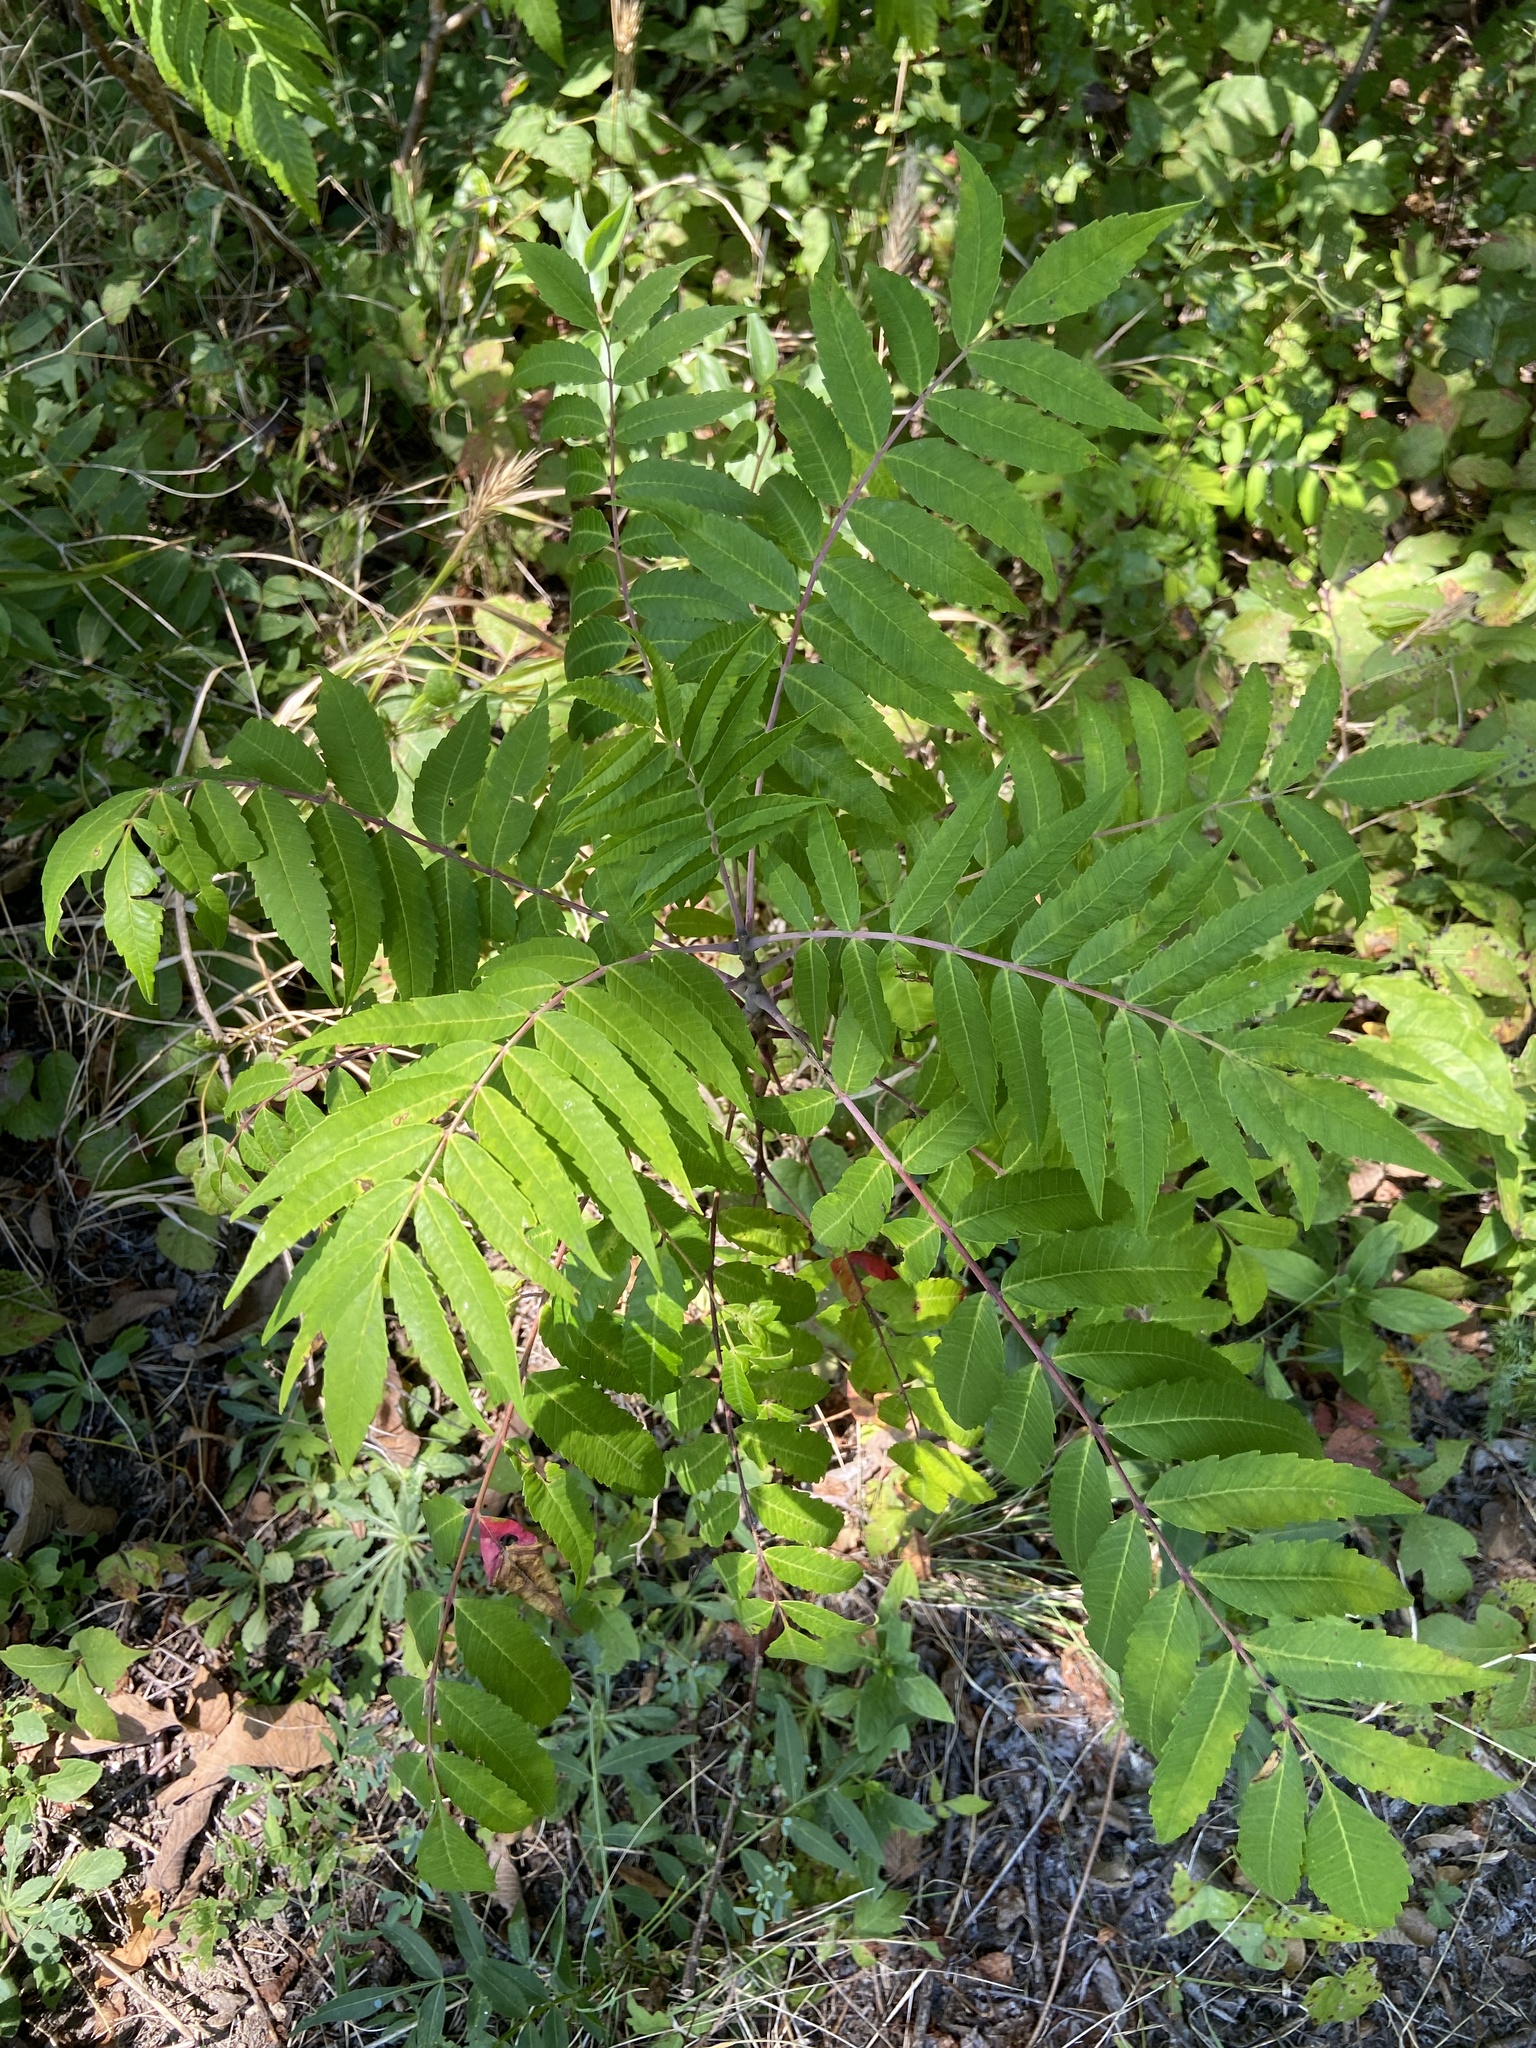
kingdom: Plantae
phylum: Tracheophyta
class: Magnoliopsida
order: Sapindales
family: Anacardiaceae
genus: Rhus
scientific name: Rhus glabra
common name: Scarlet sumac
